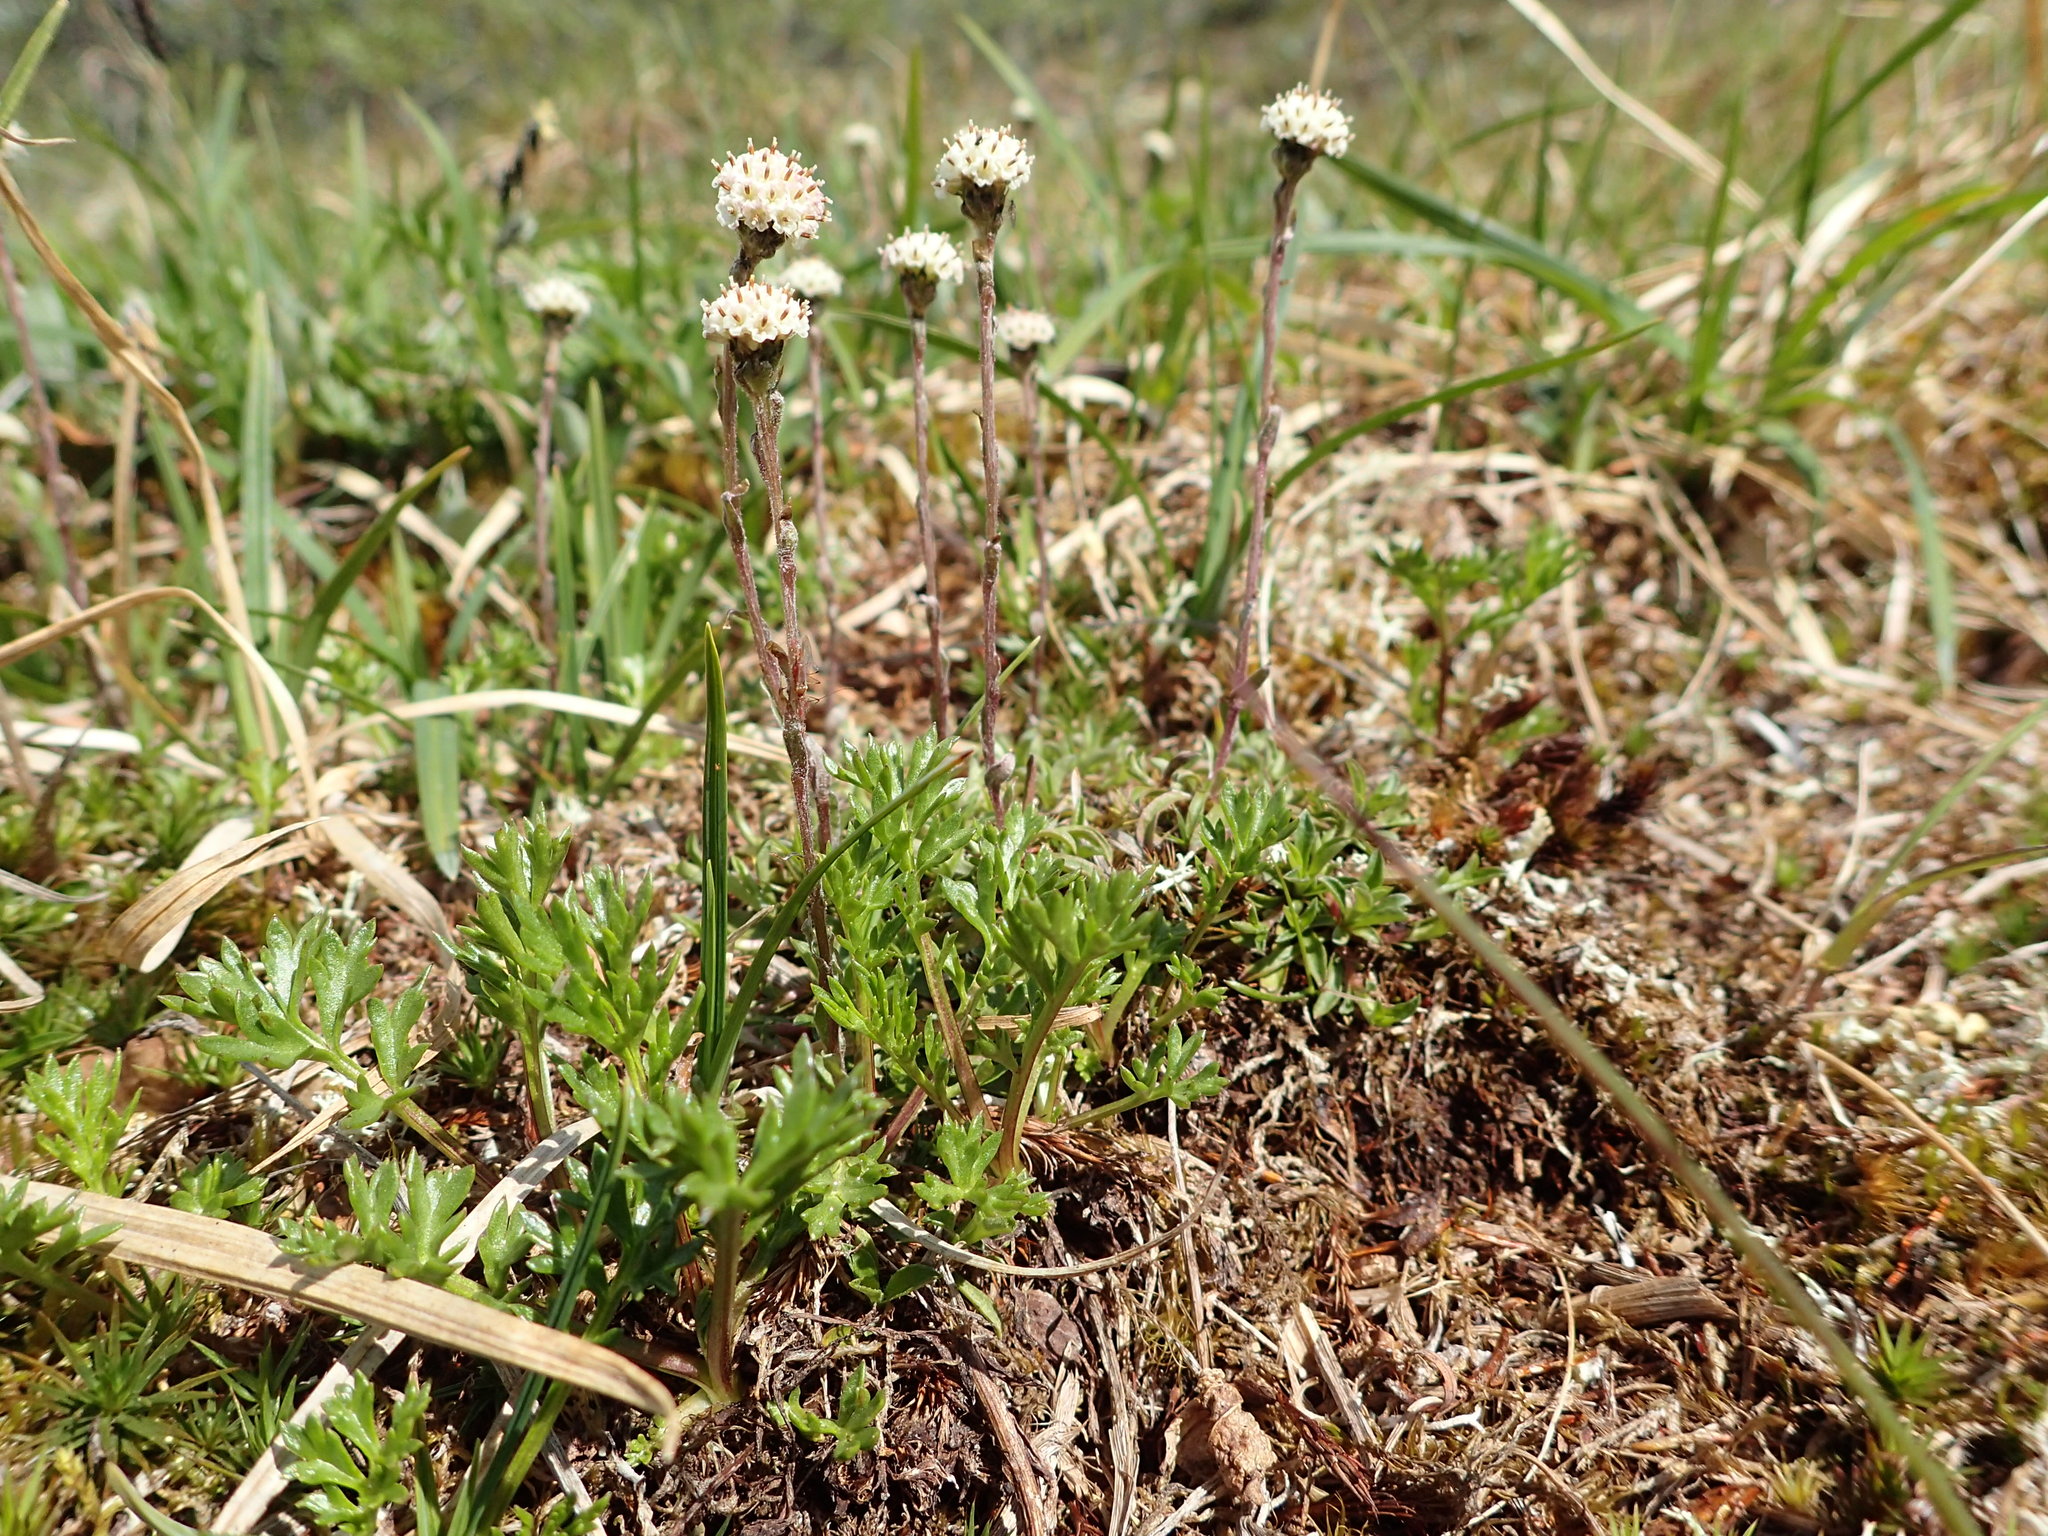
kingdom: Plantae
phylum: Tracheophyta
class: Magnoliopsida
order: Asterales
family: Asteraceae
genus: Antennaria
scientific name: Antennaria monocephala
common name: Pygmy pussytoes
